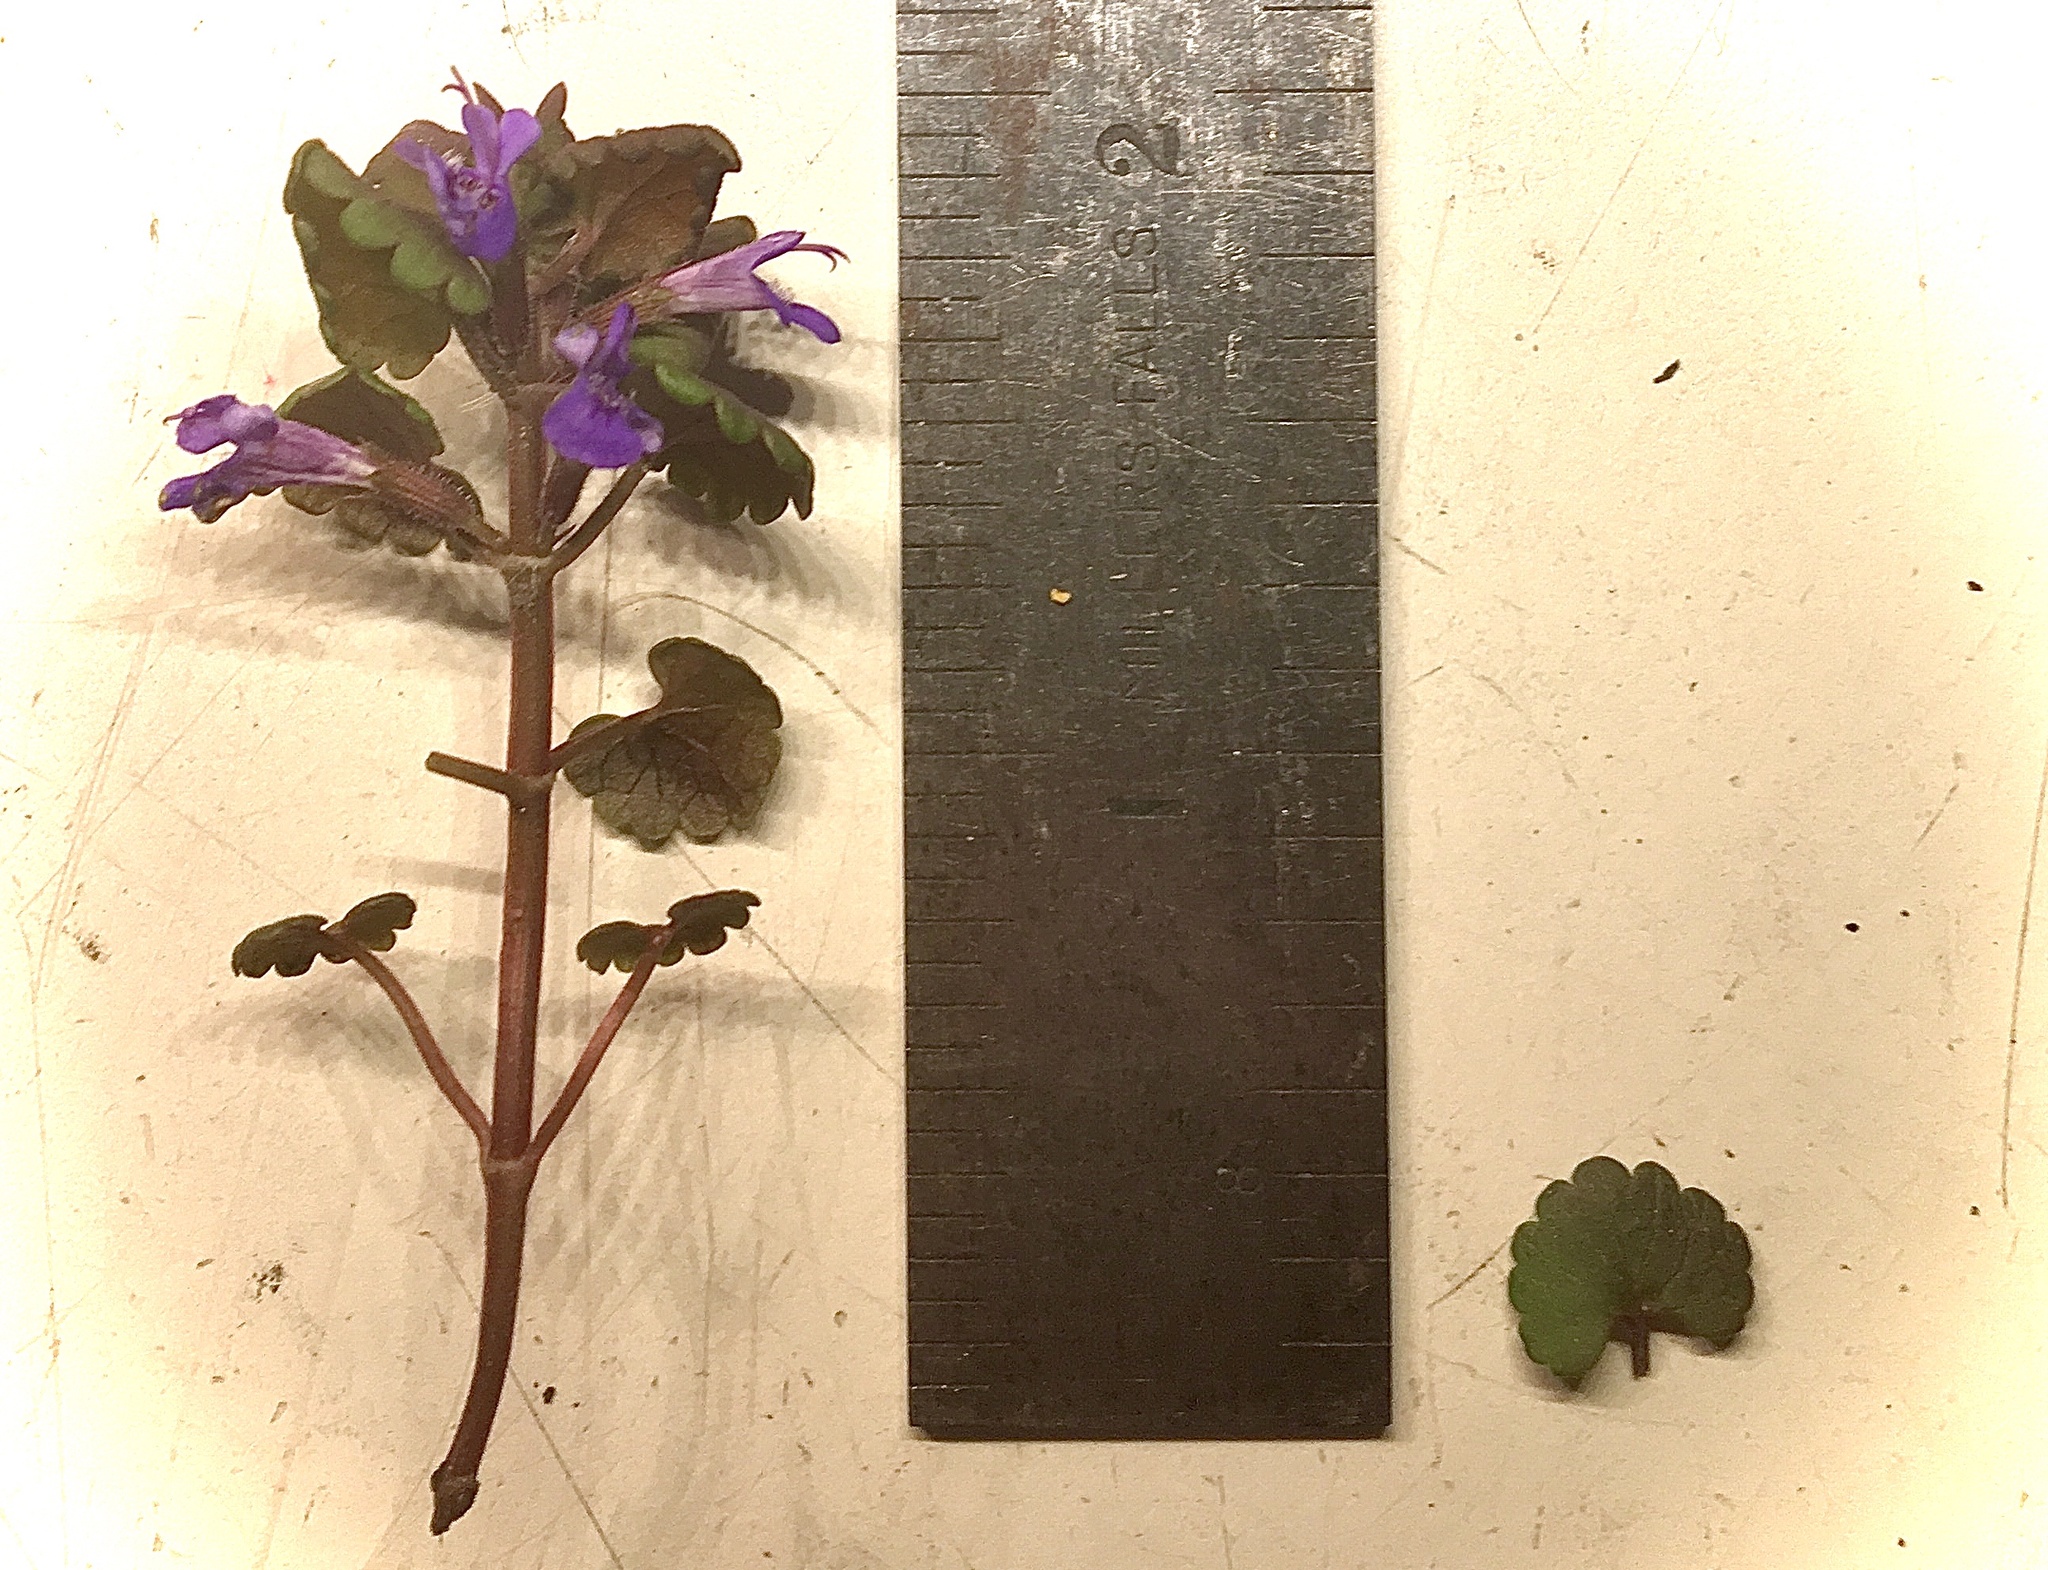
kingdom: Plantae
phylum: Tracheophyta
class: Magnoliopsida
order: Lamiales
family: Lamiaceae
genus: Glechoma
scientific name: Glechoma hederacea
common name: Ground ivy
